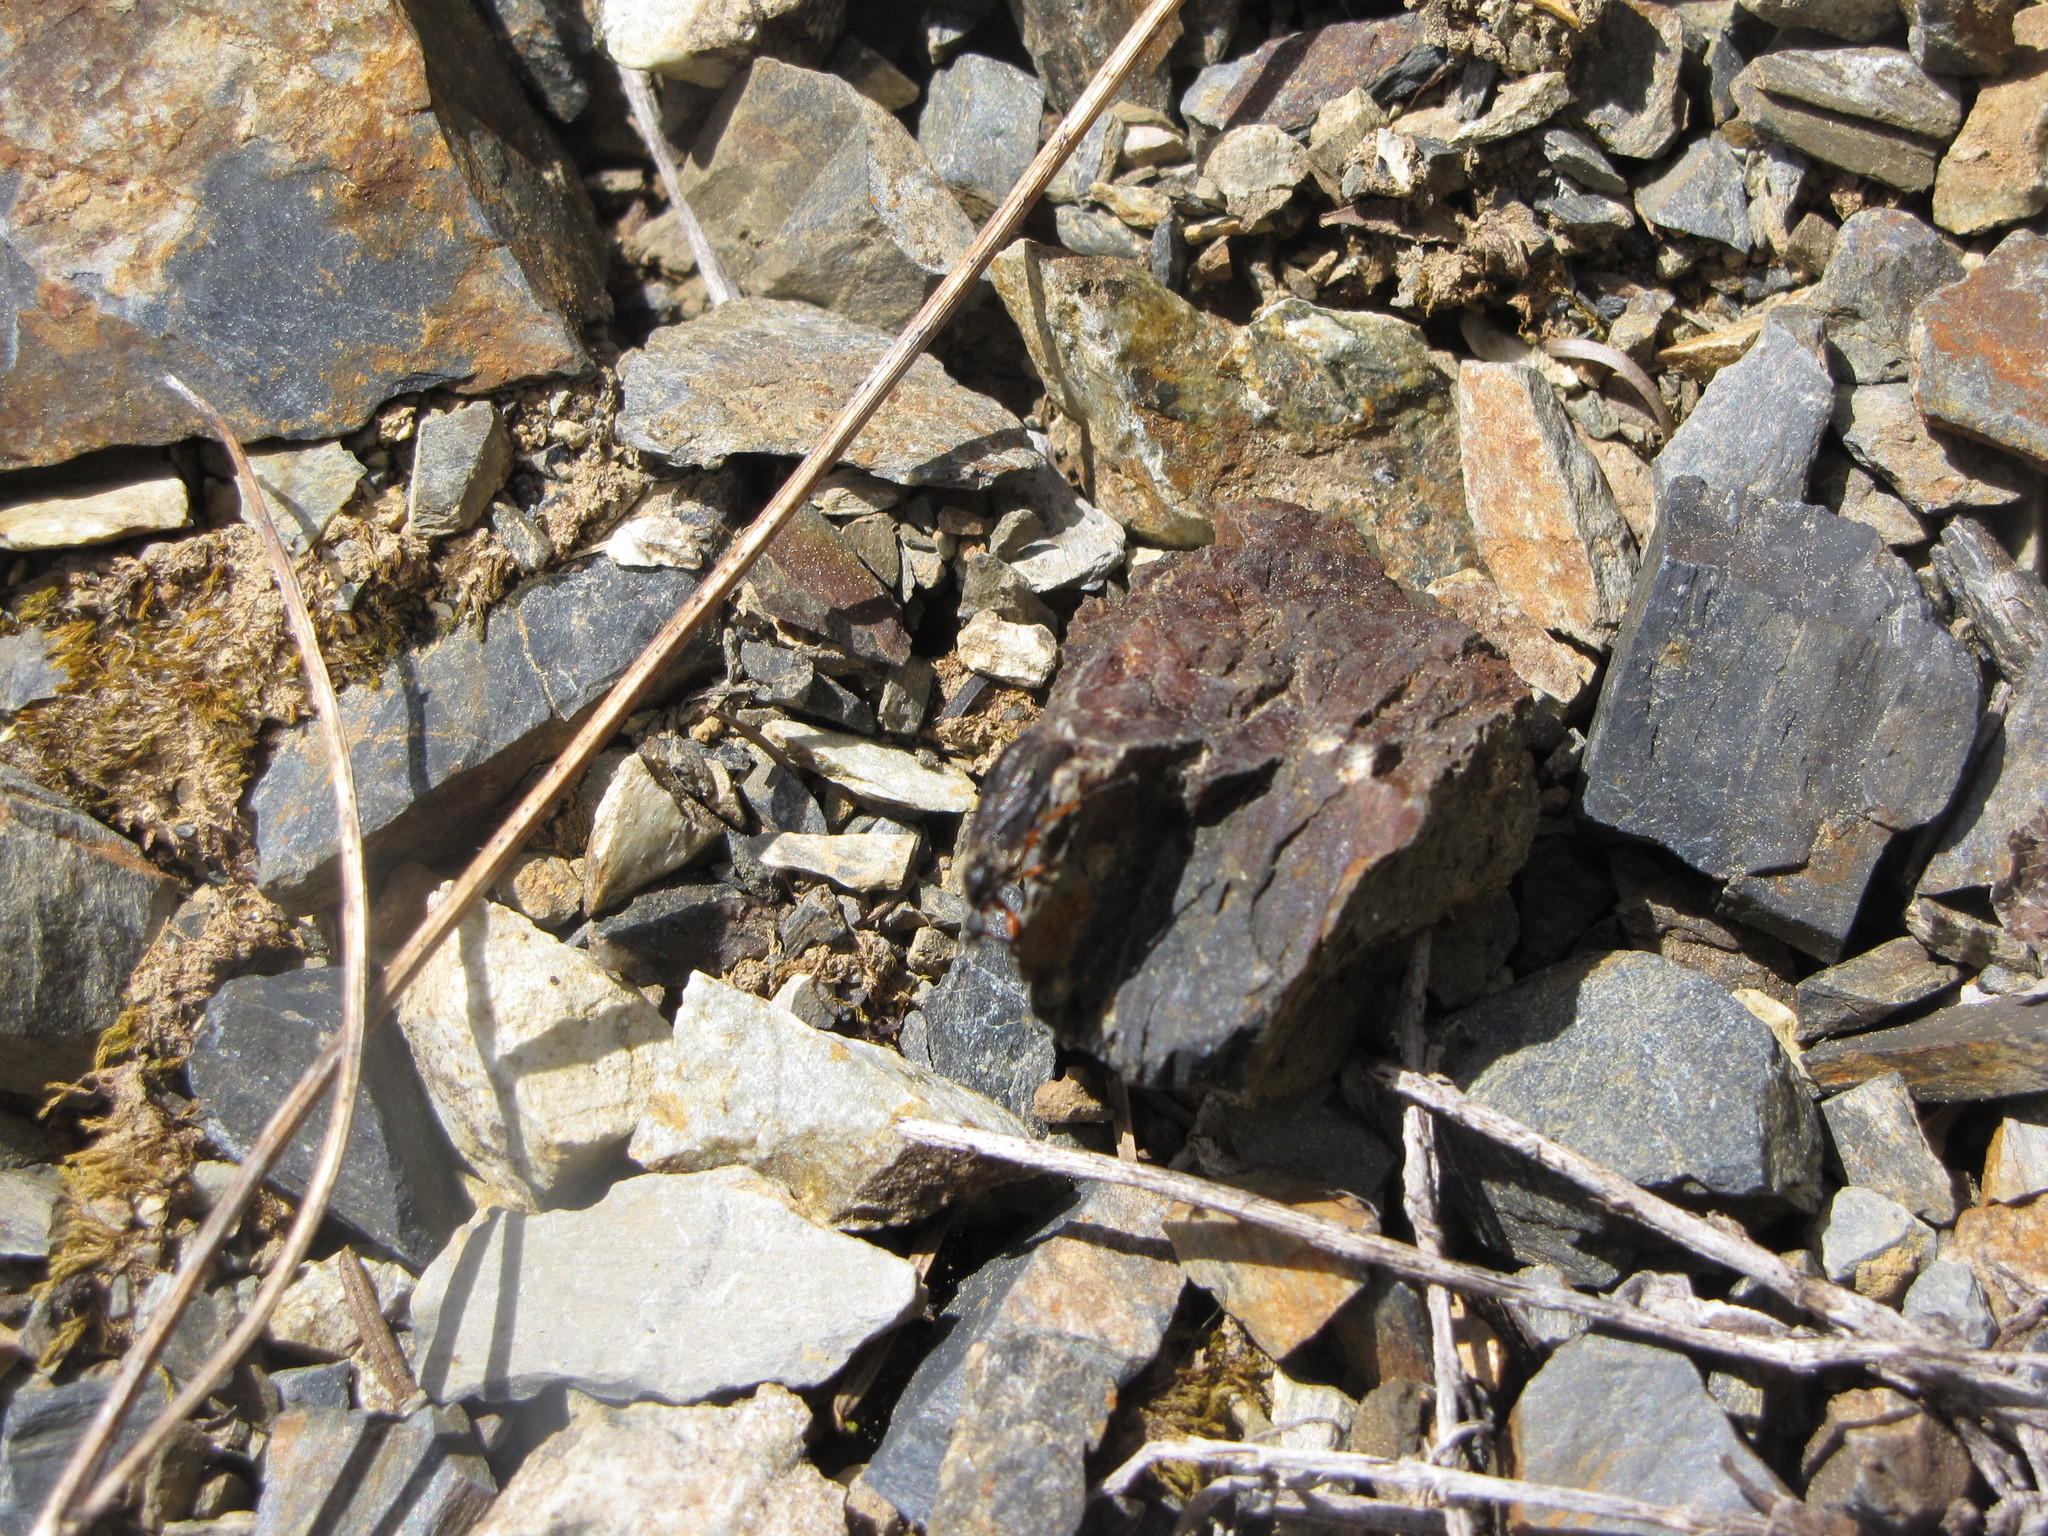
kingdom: Animalia
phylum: Arthropoda
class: Insecta
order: Diptera
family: Bibionidae
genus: Bibio
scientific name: Bibio
